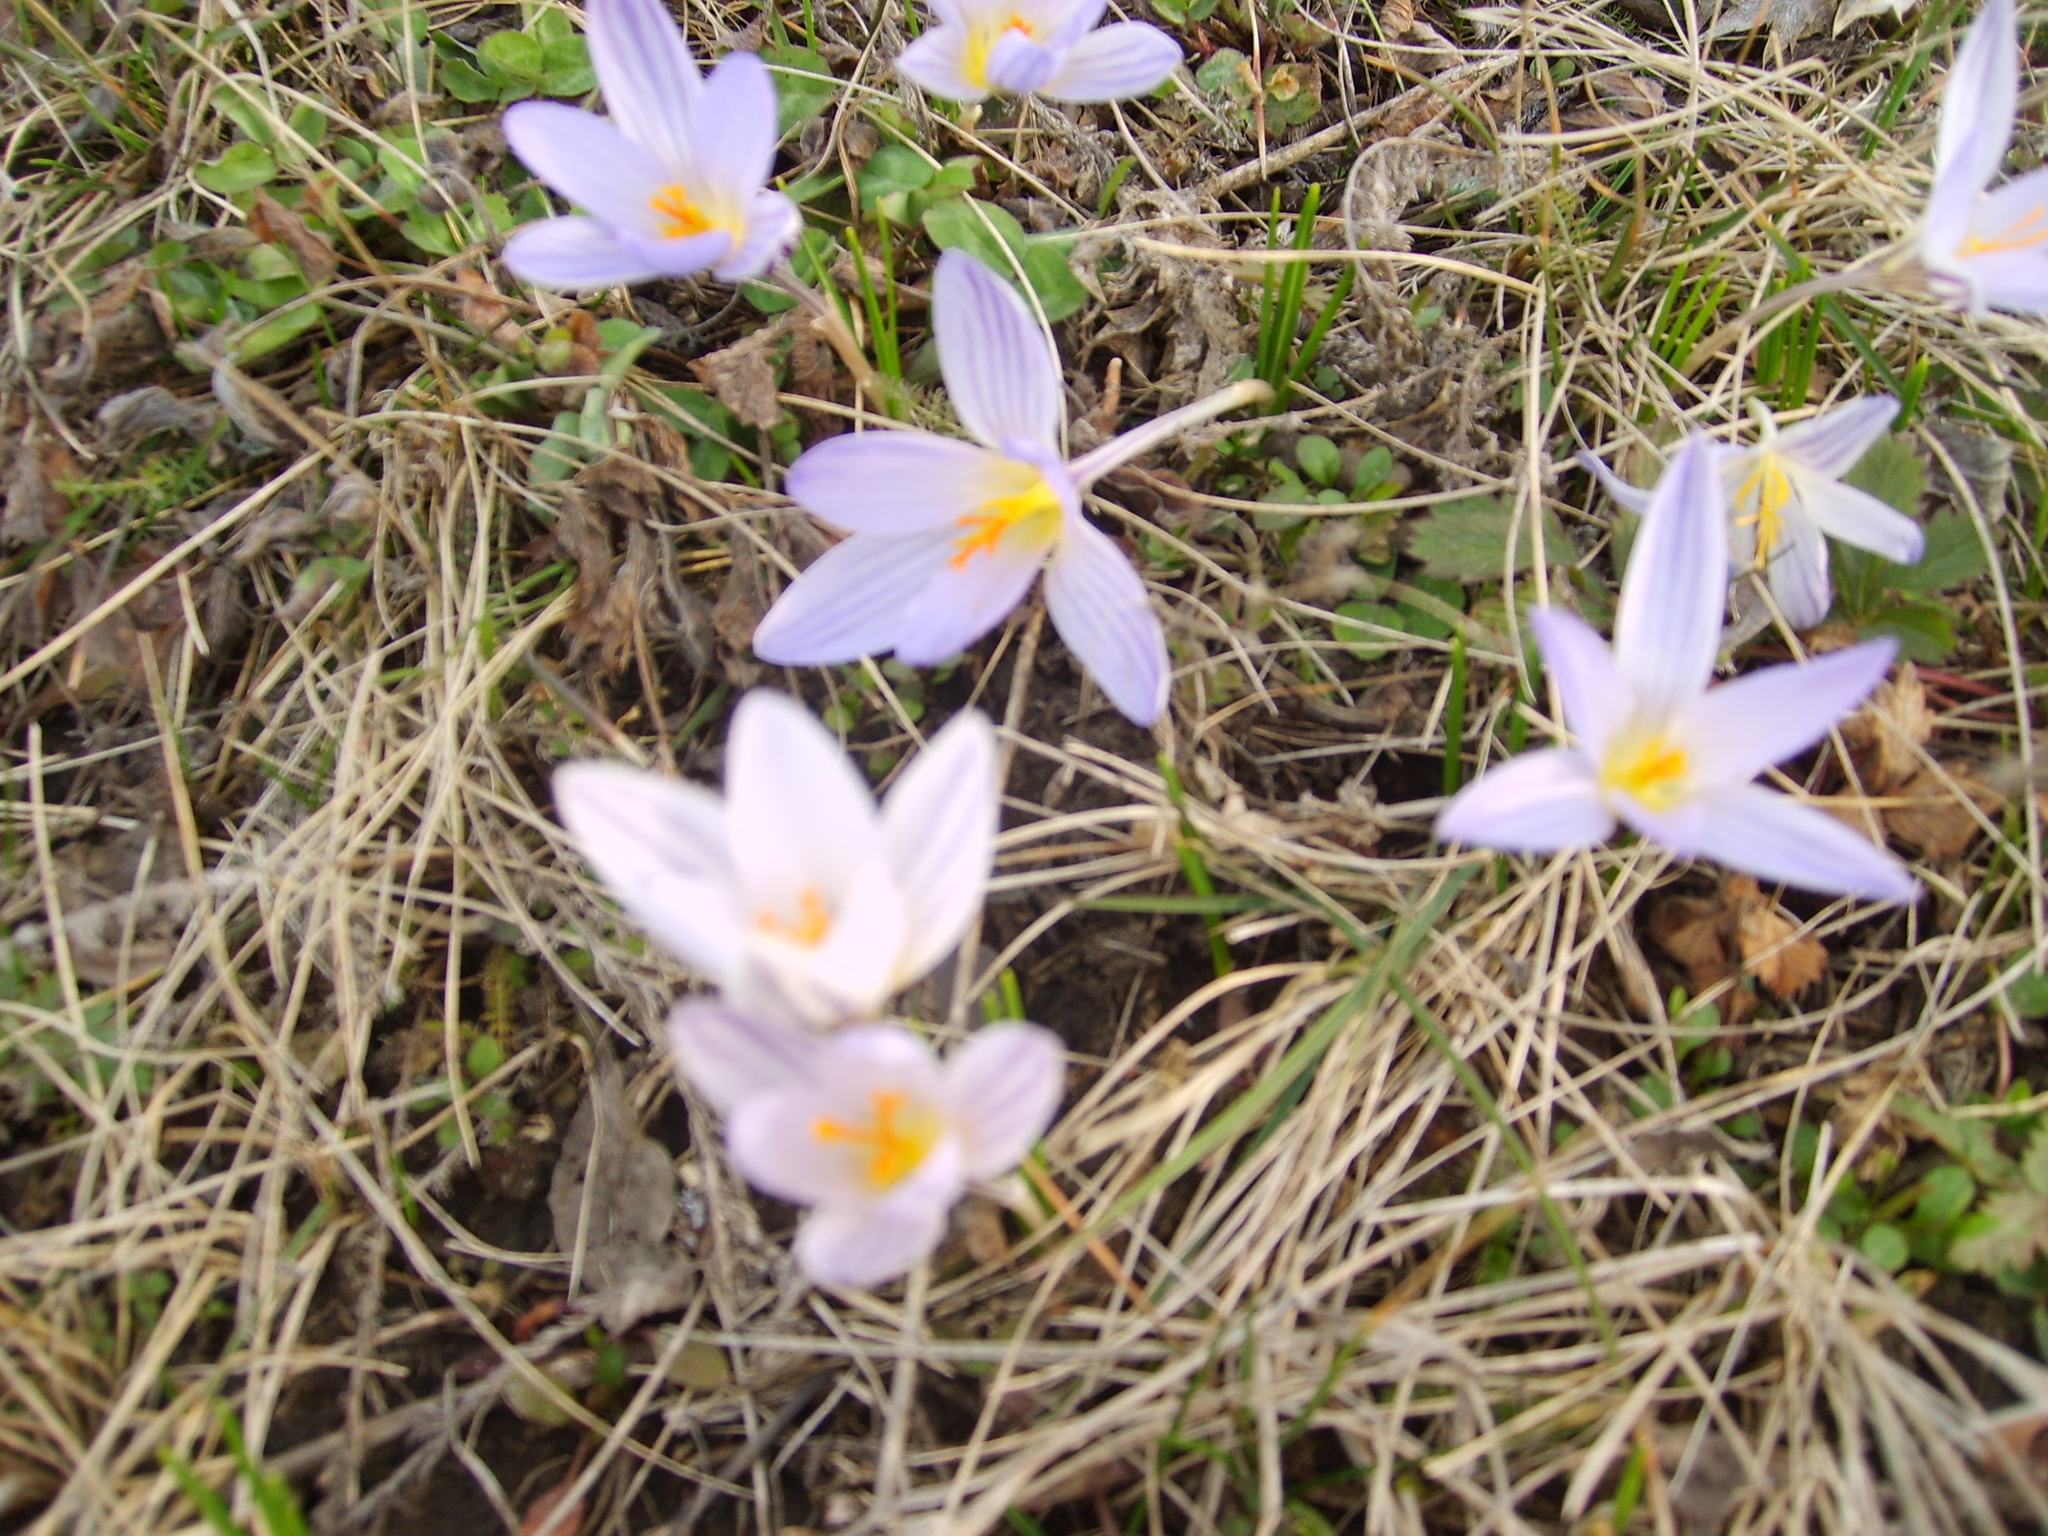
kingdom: Plantae
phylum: Tracheophyta
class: Liliopsida
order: Asparagales
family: Iridaceae
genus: Crocus
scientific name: Crocus reticulatus
